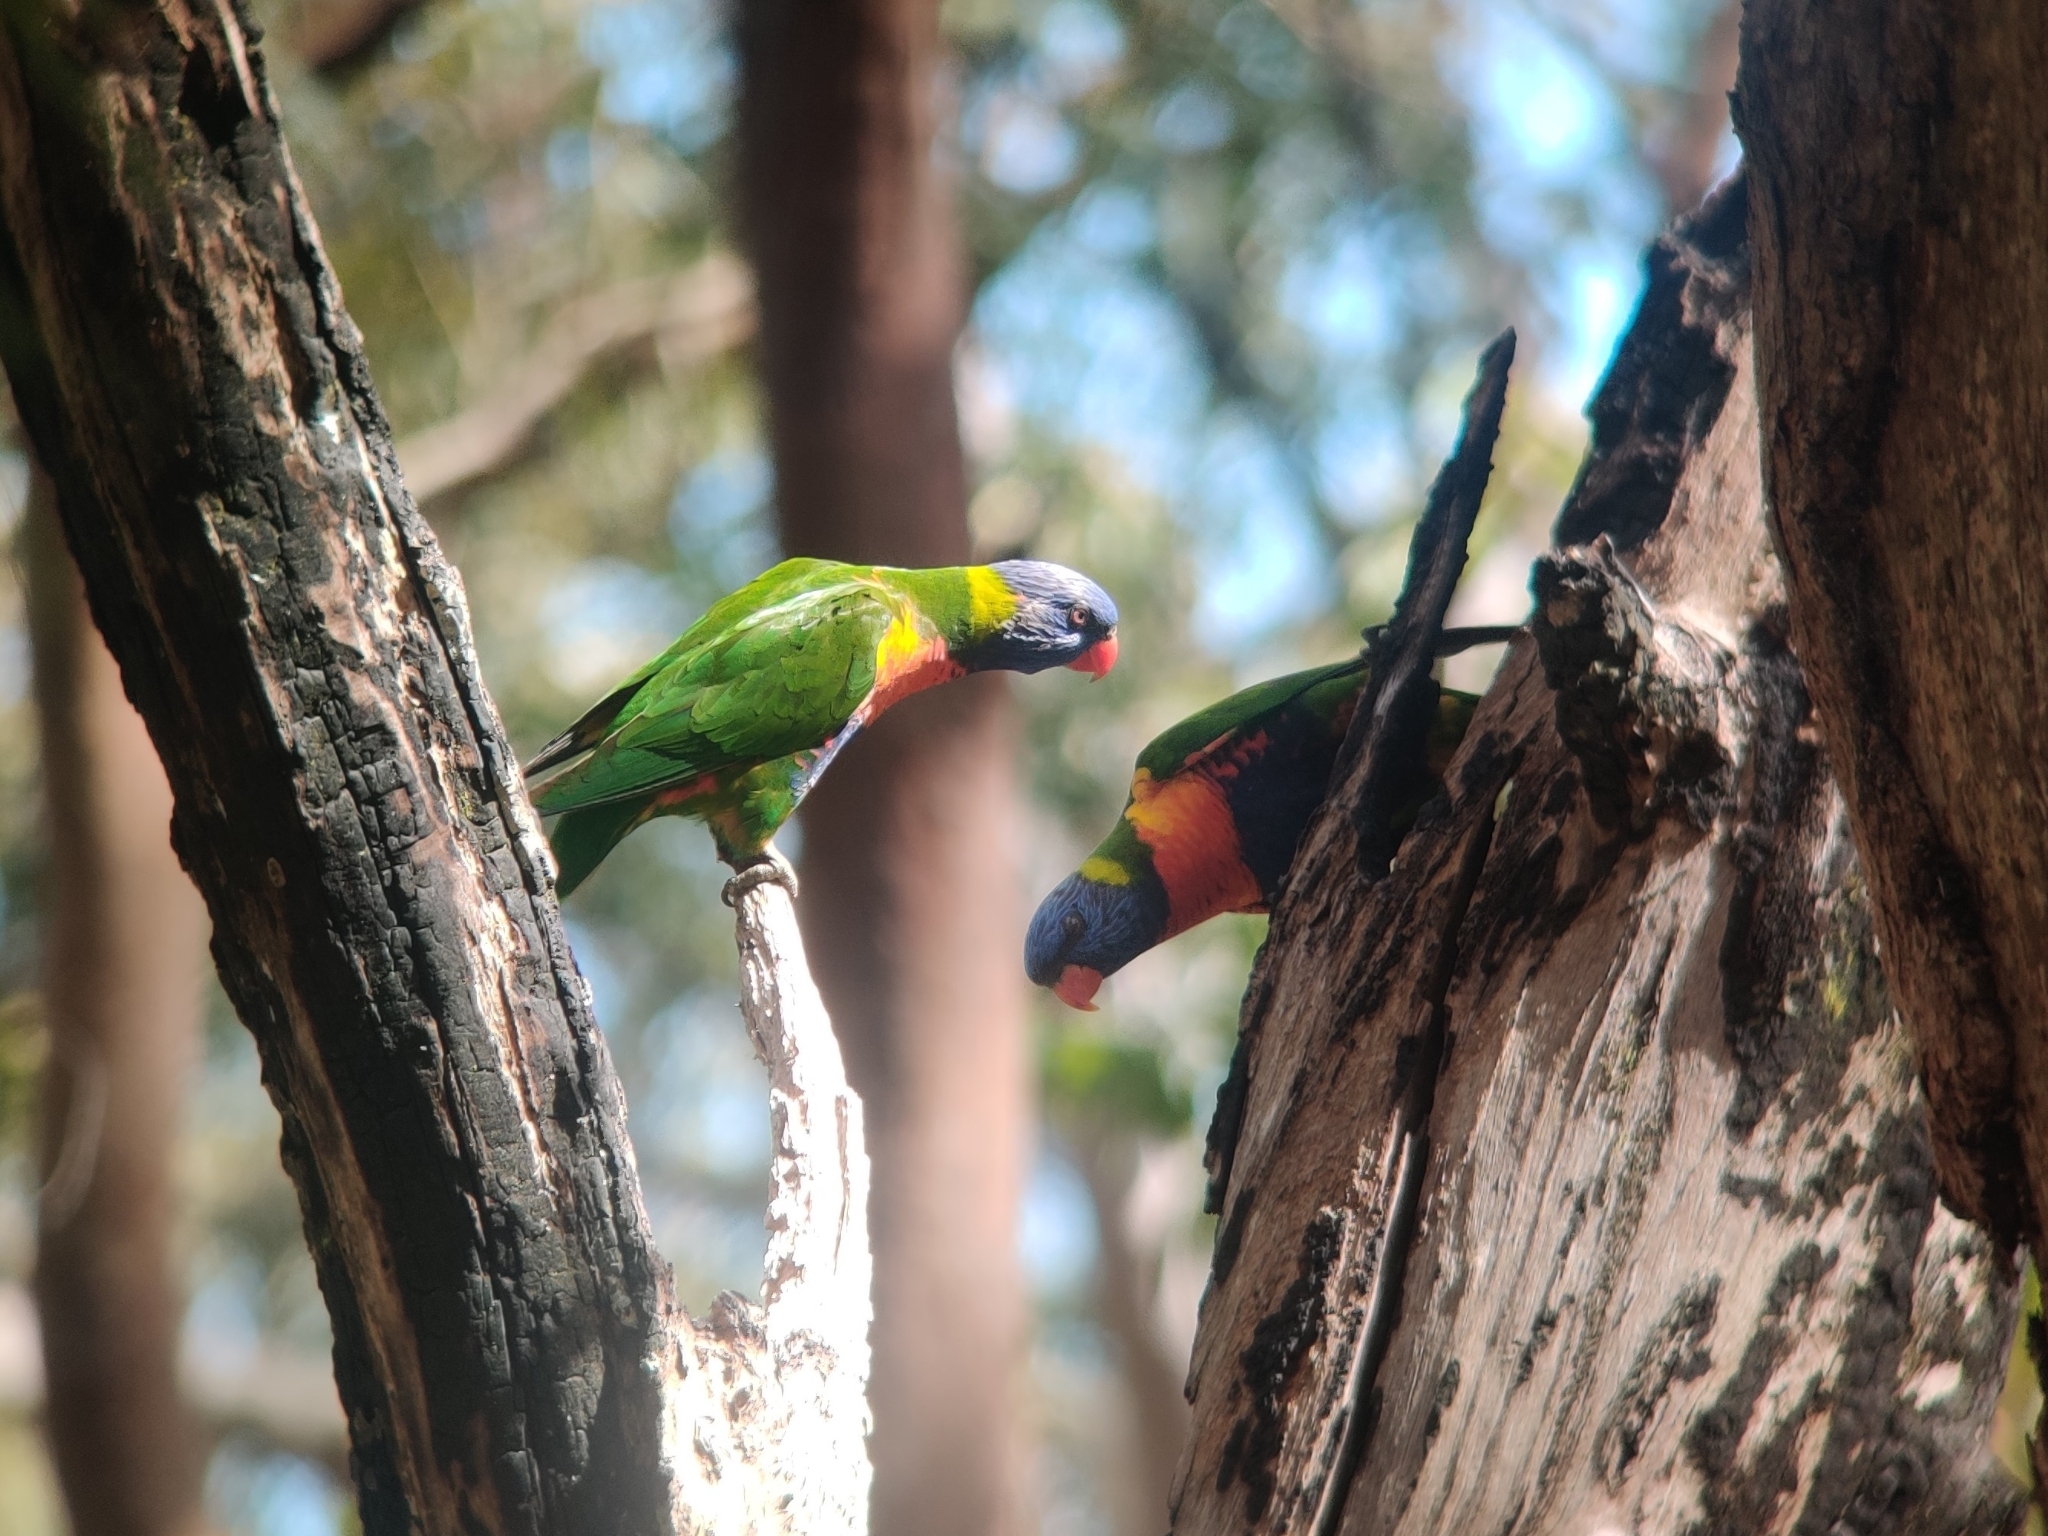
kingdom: Animalia
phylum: Chordata
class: Aves
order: Psittaciformes
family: Psittacidae
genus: Trichoglossus
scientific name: Trichoglossus haematodus
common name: Coconut lorikeet
